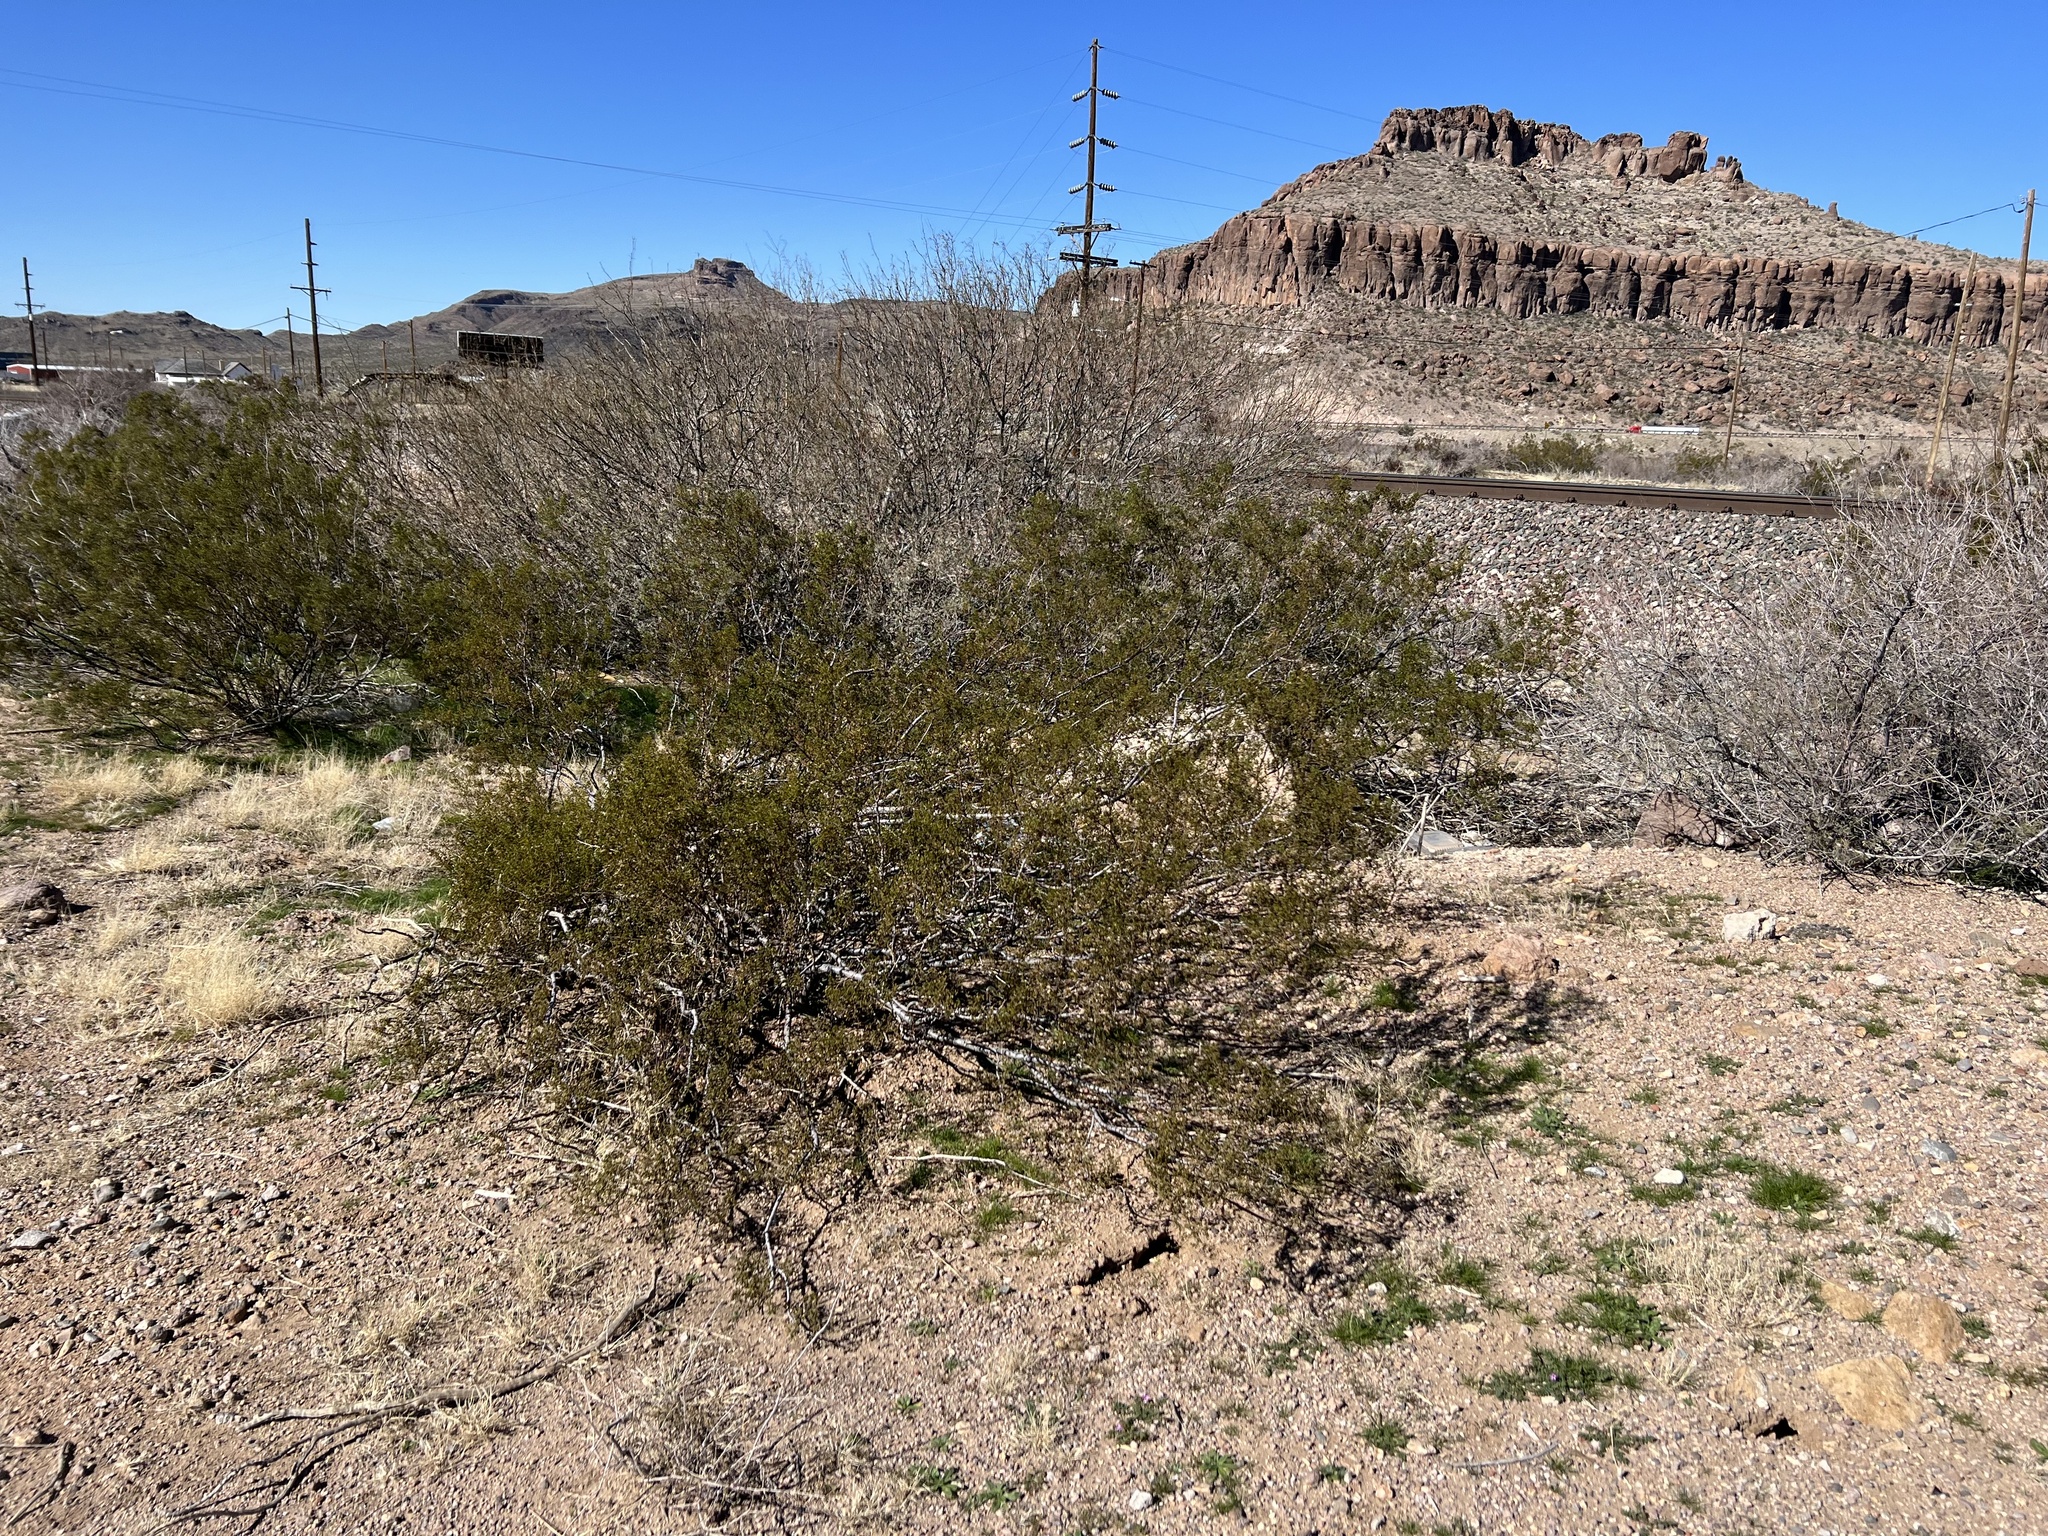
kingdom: Plantae
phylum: Tracheophyta
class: Magnoliopsida
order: Zygophyllales
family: Zygophyllaceae
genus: Larrea
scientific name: Larrea tridentata
